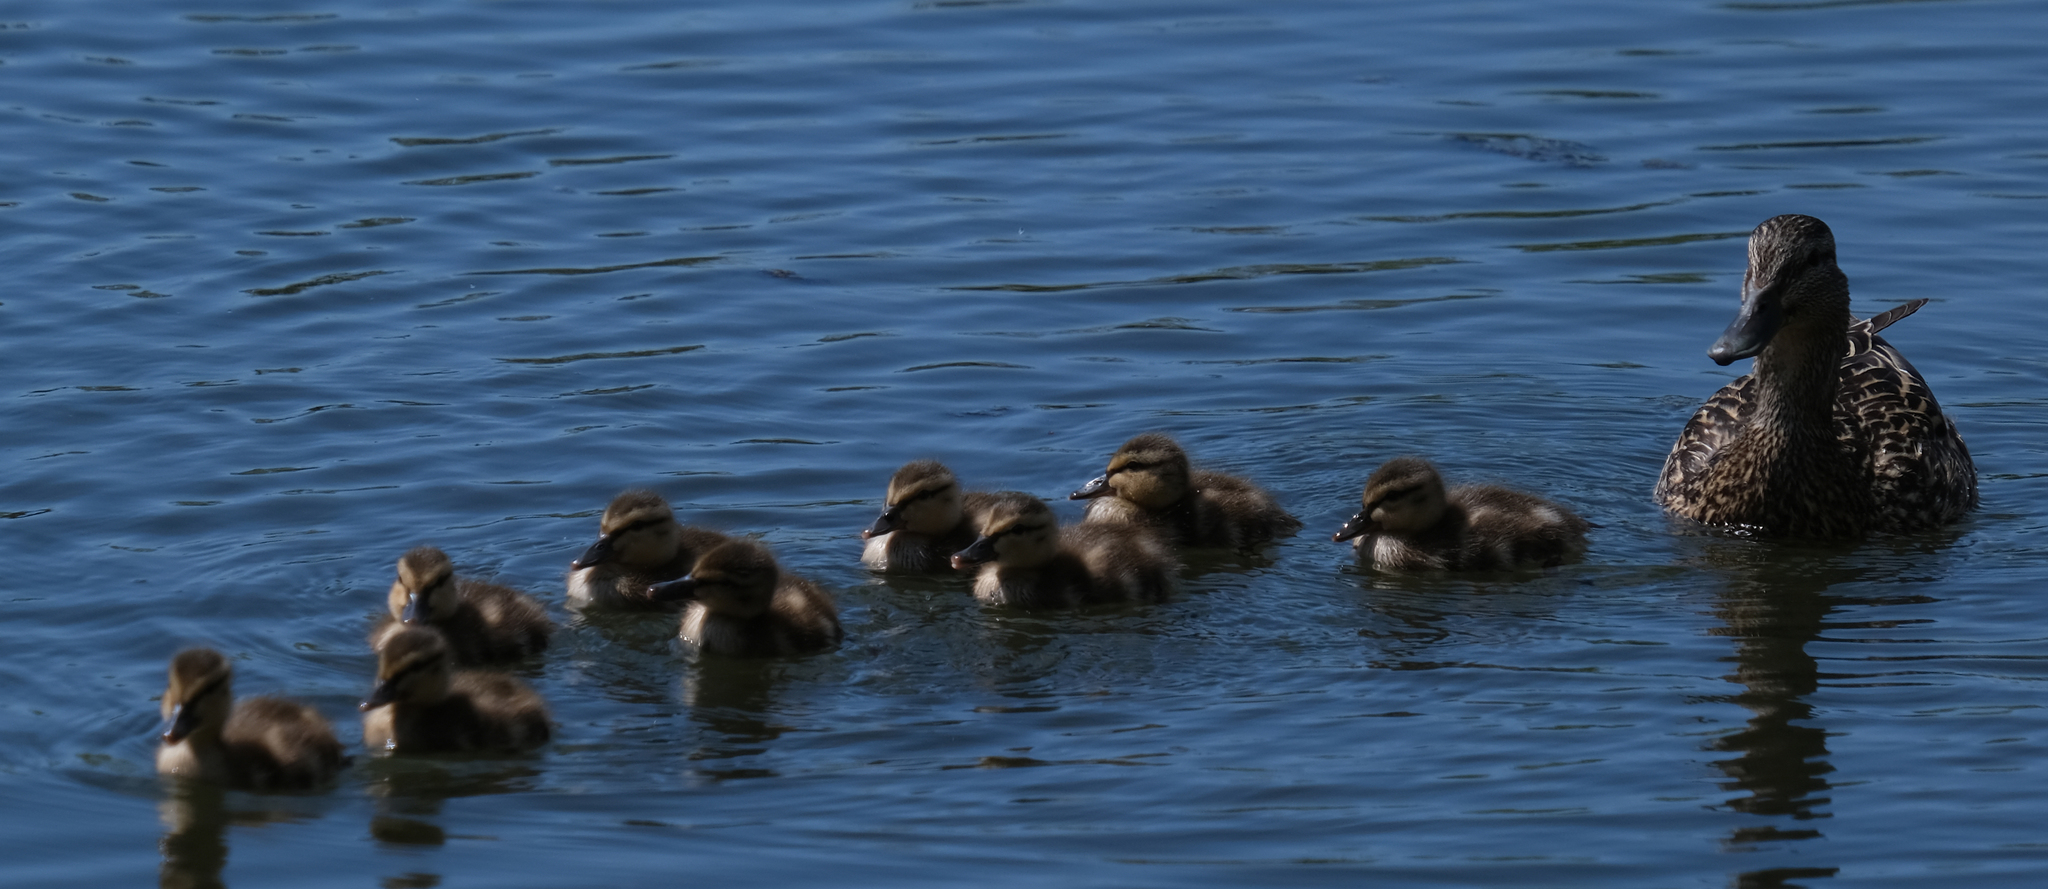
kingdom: Animalia
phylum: Chordata
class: Aves
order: Anseriformes
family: Anatidae
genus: Anas
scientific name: Anas platyrhynchos
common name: Mallard
